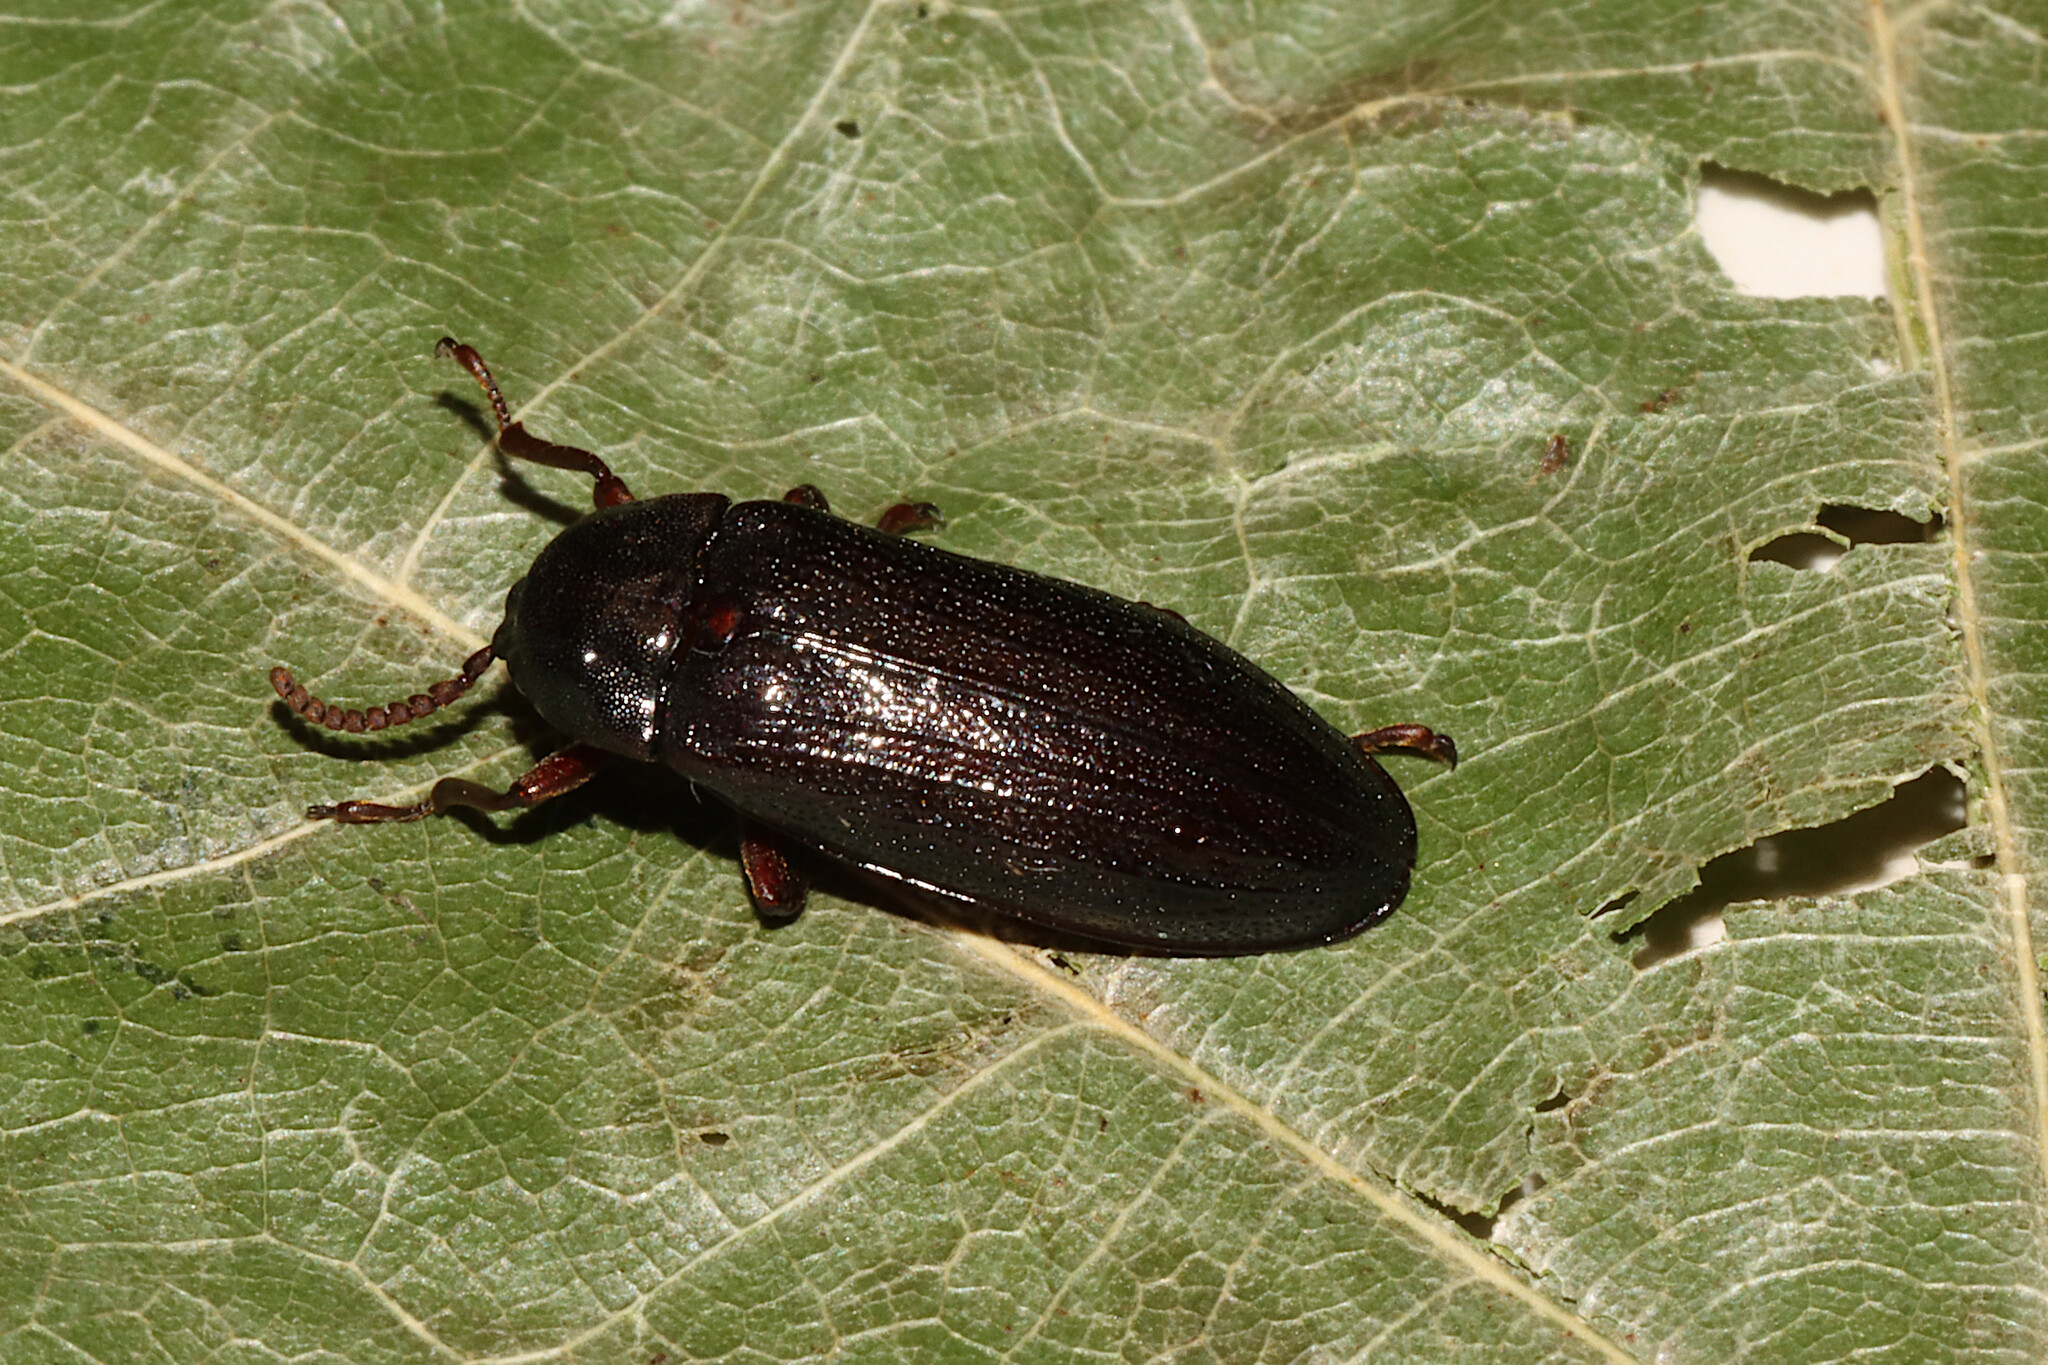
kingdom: Animalia
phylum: Arthropoda
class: Insecta
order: Coleoptera
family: Callirhipidae
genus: Zenoa
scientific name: Zenoa picea
